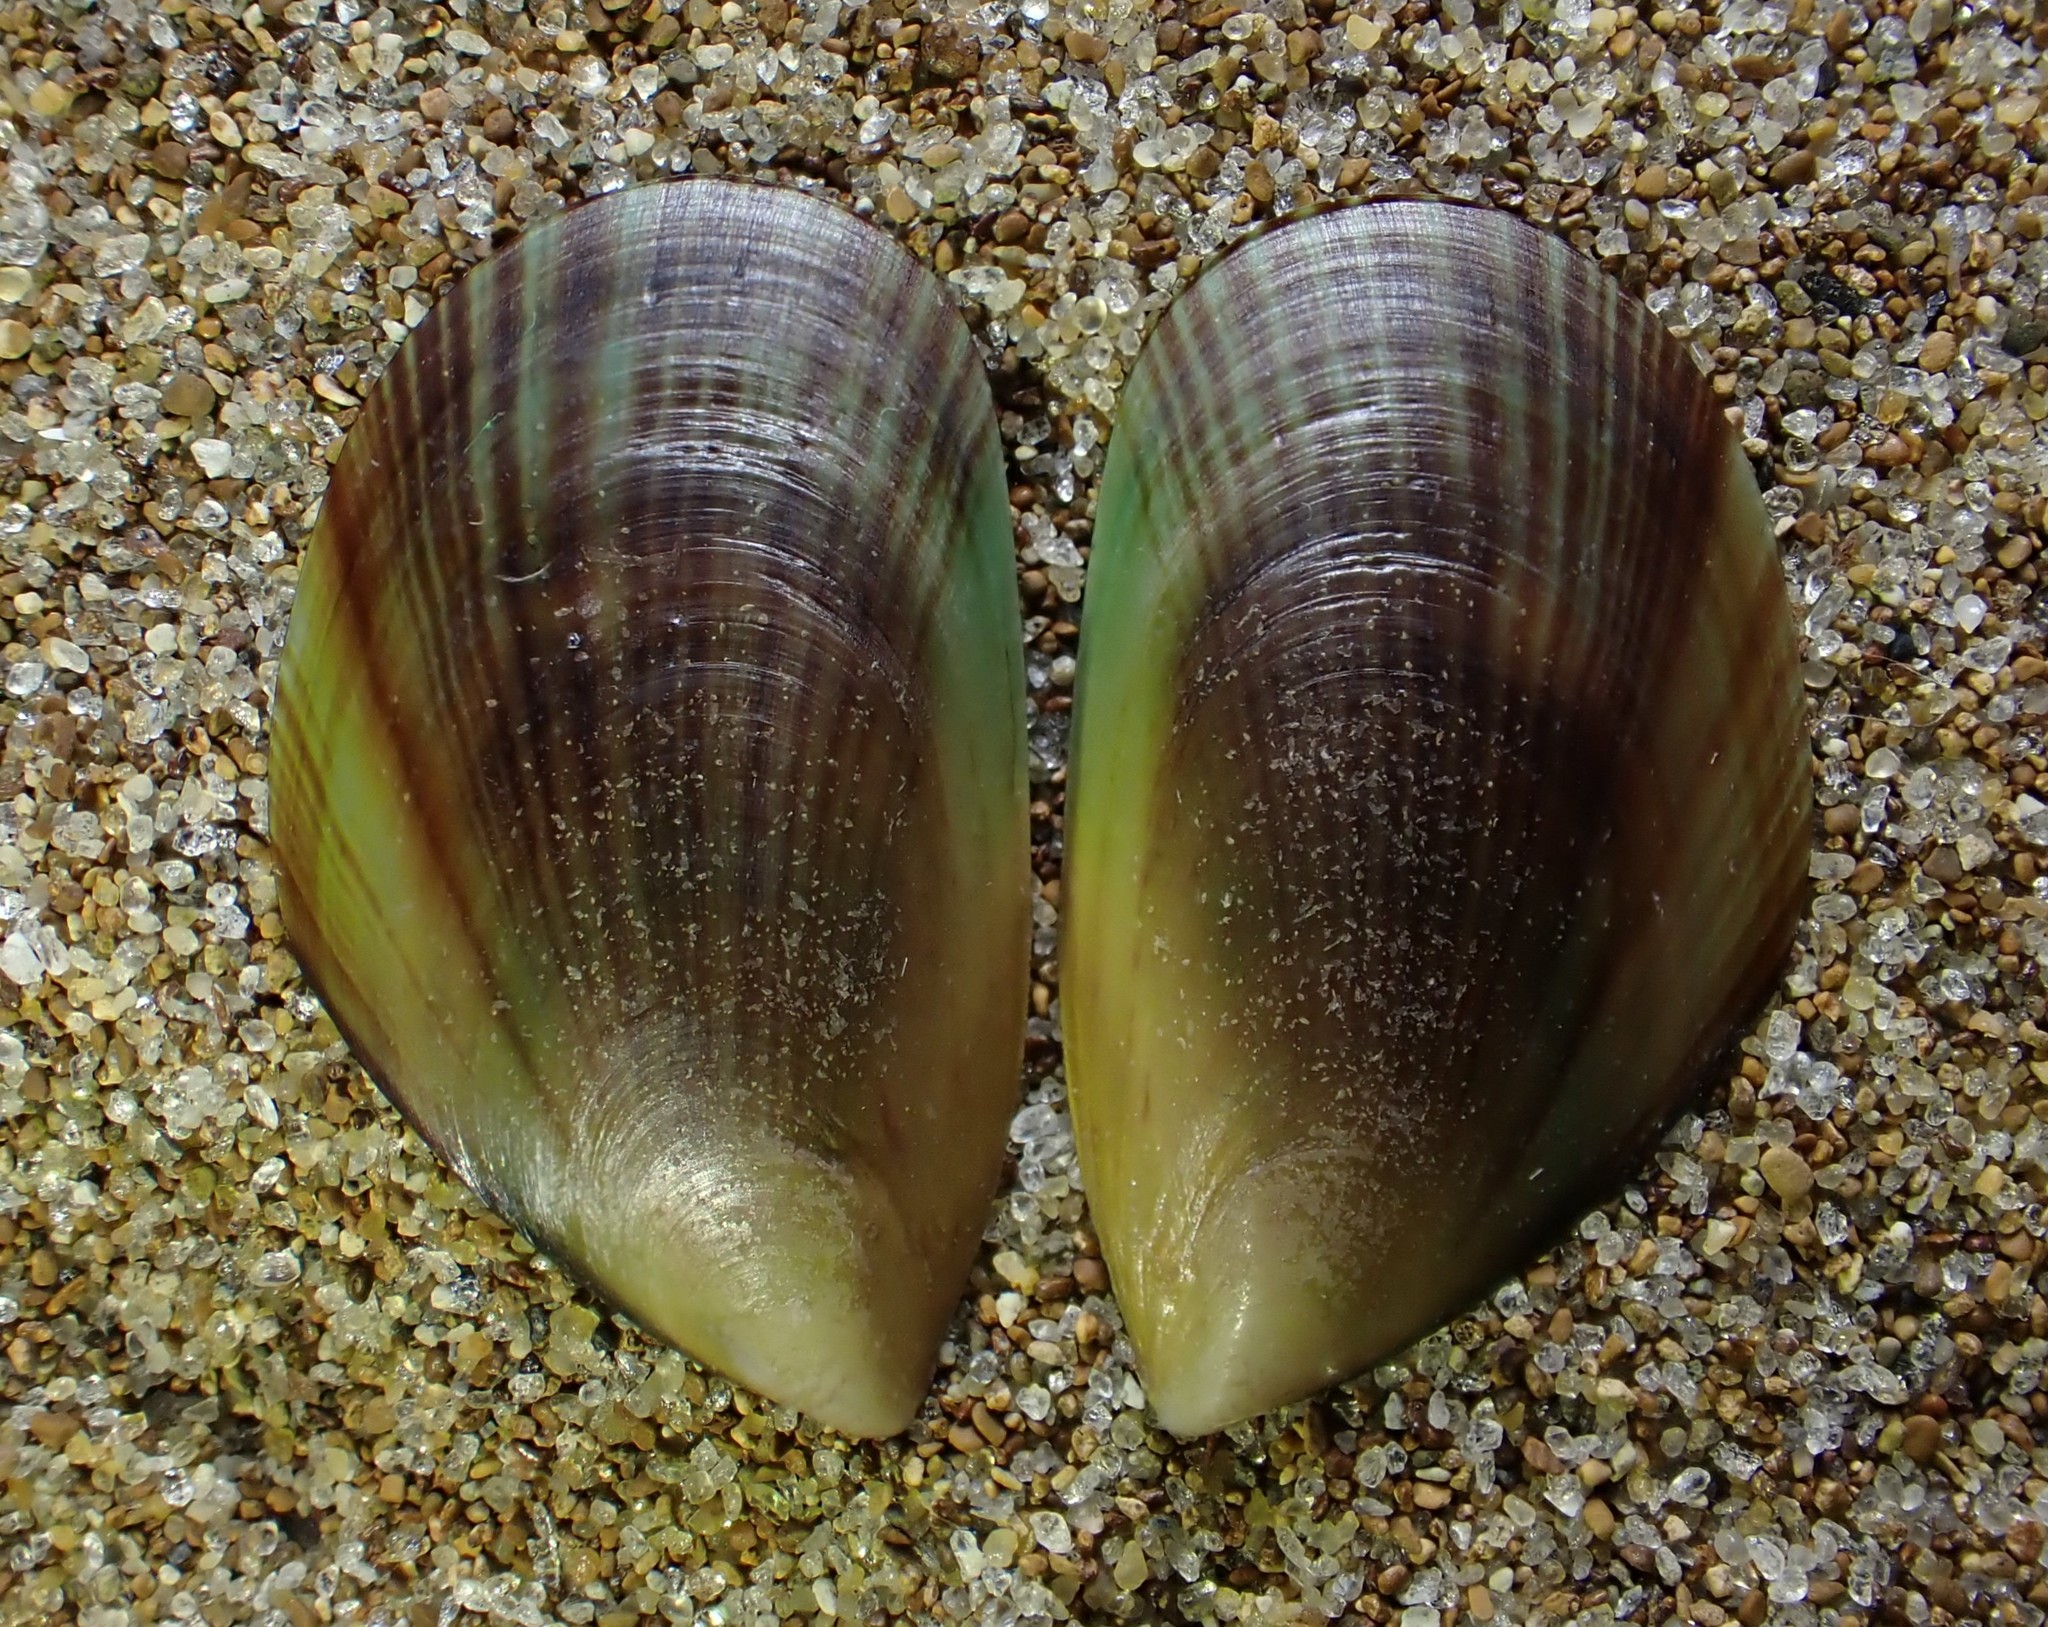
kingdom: Animalia
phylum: Mollusca
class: Bivalvia
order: Mytilida
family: Mytilidae
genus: Perna
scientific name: Perna canaliculus
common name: New zealand greenshelltm
